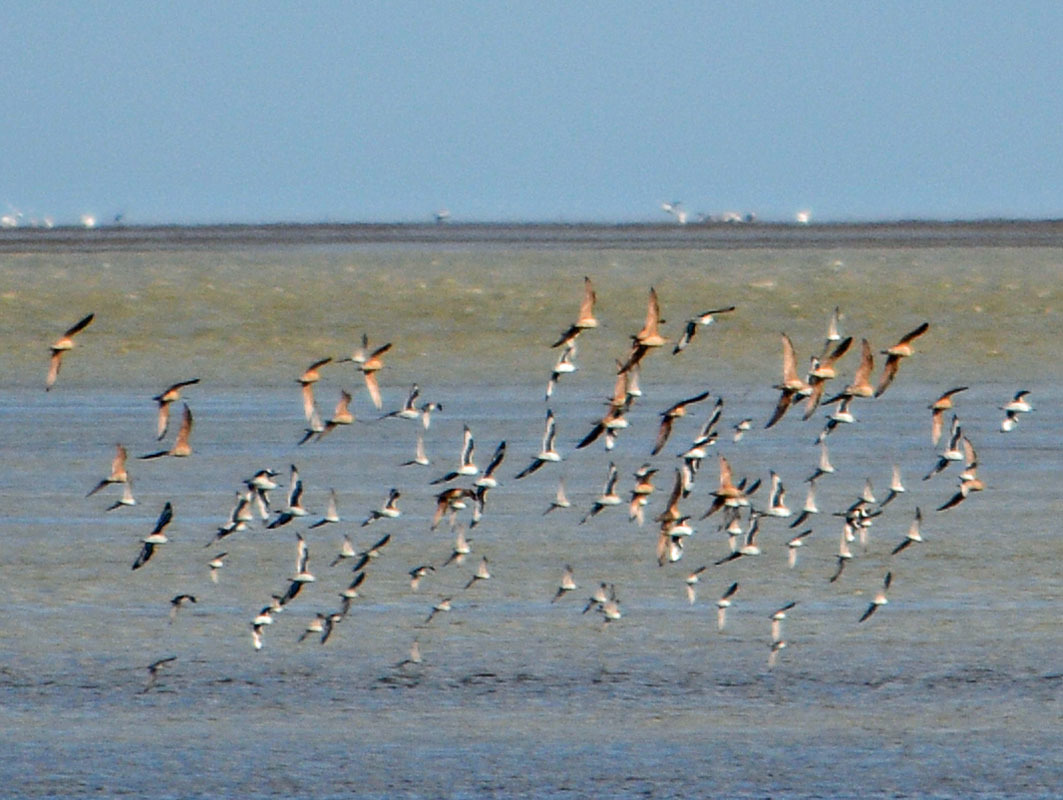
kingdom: Animalia
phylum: Chordata
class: Aves
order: Charadriiformes
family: Scolopacidae
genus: Limosa
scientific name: Limosa fedoa
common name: Marbled godwit
